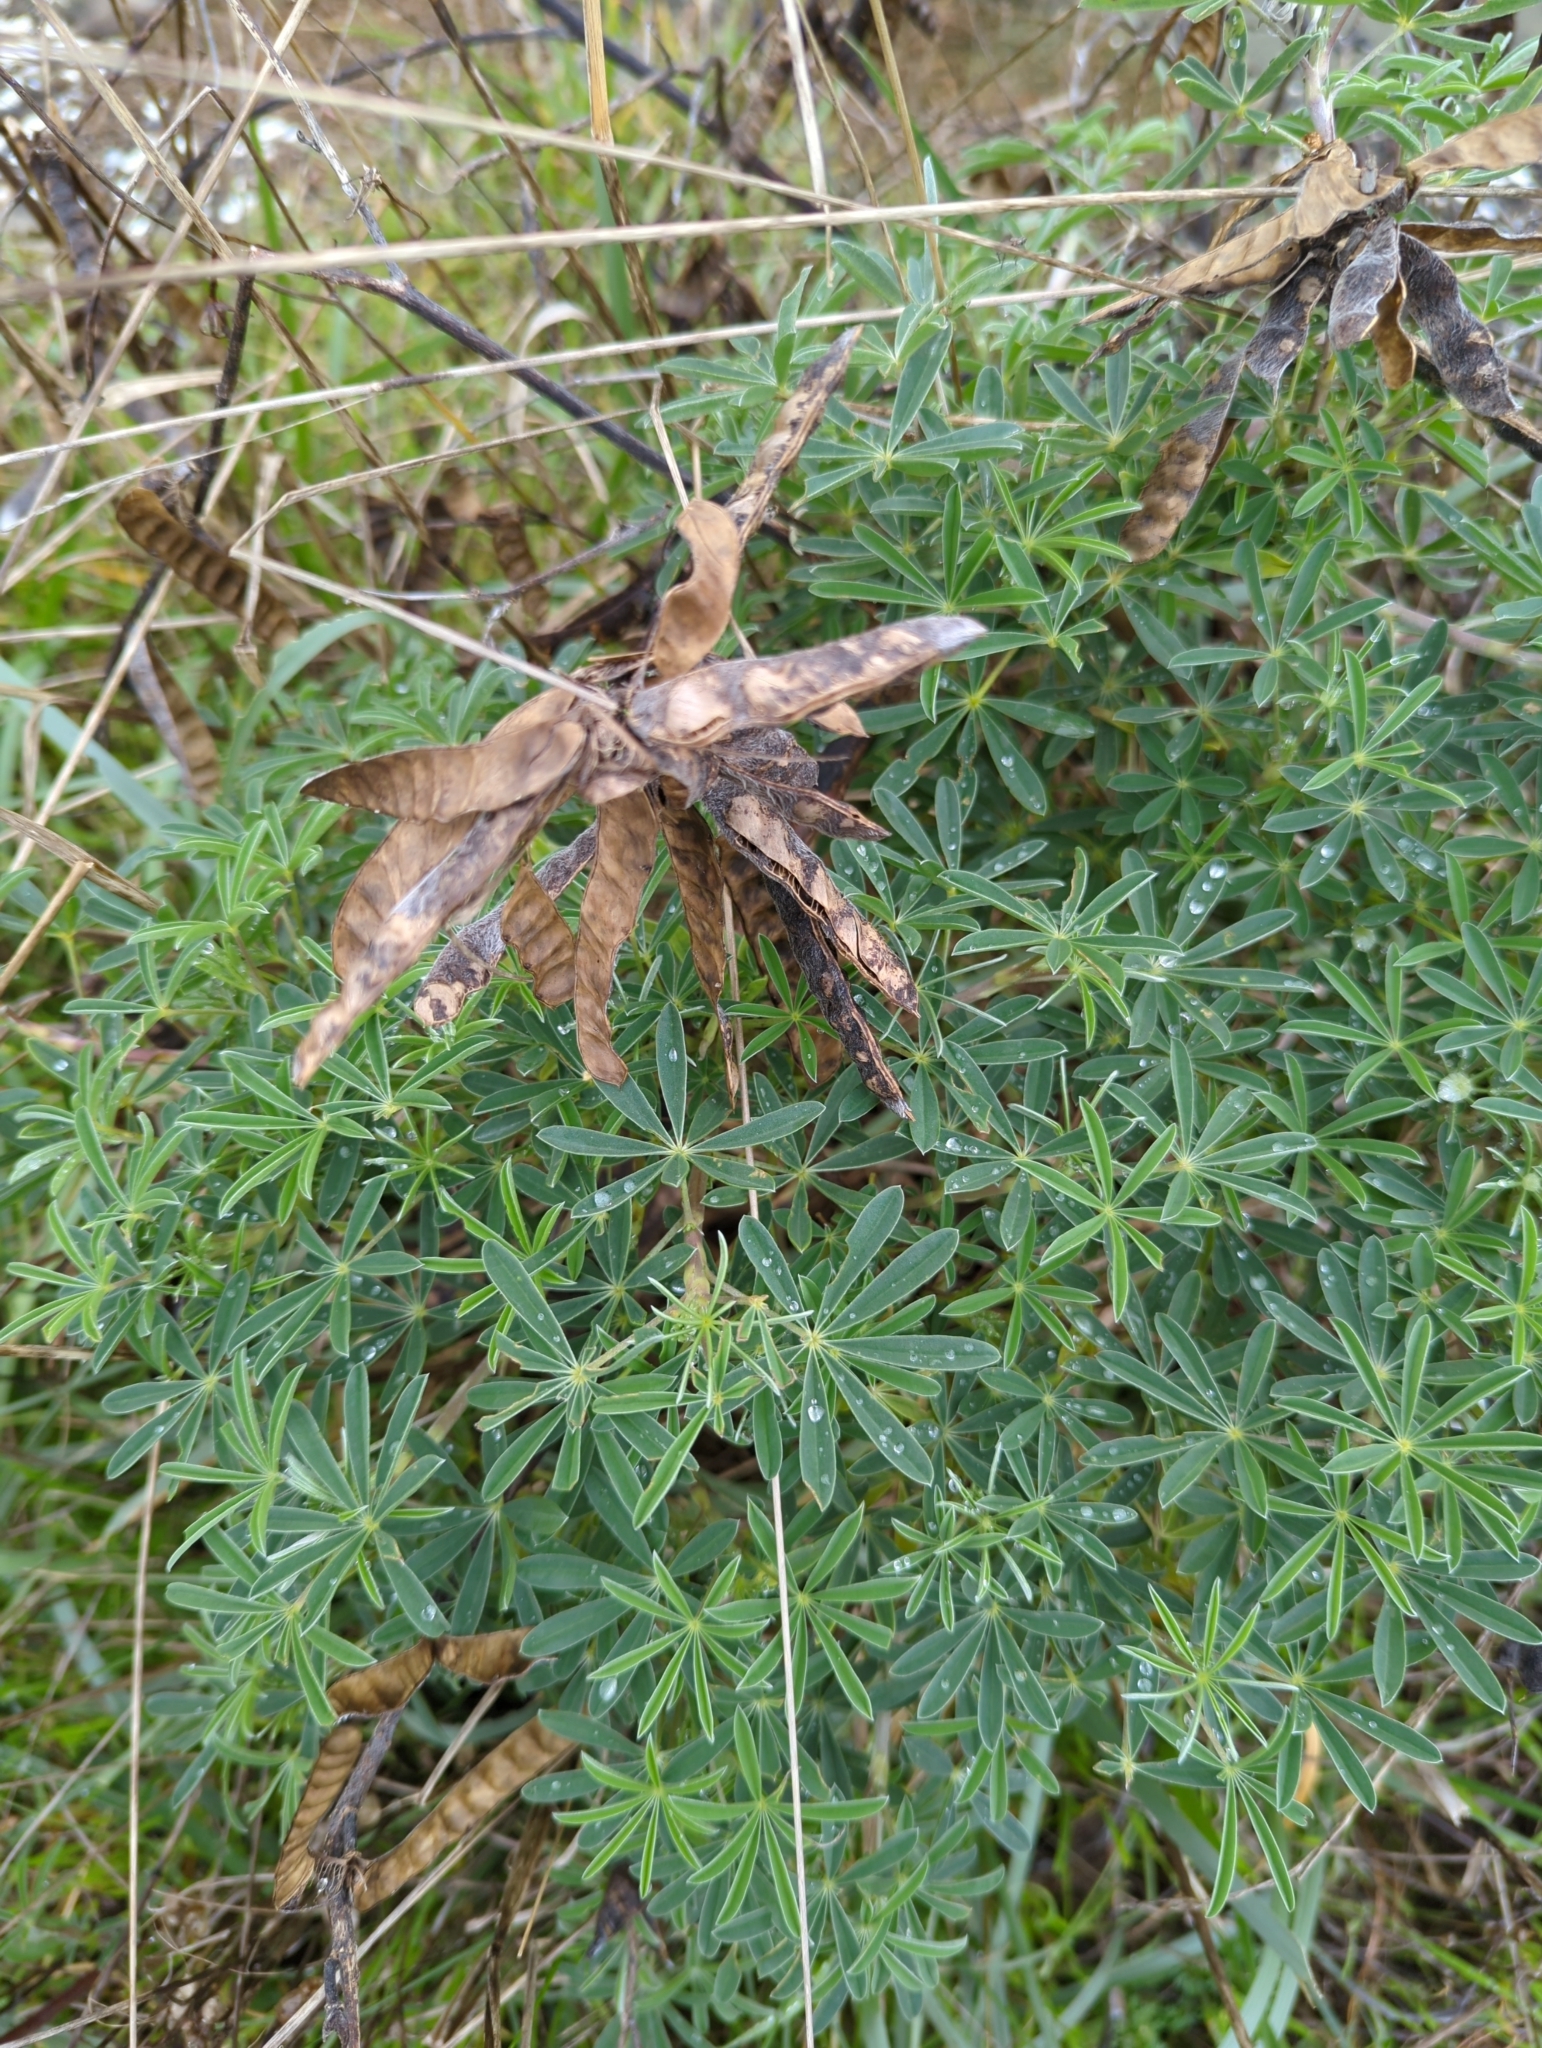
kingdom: Plantae
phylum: Tracheophyta
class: Magnoliopsida
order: Fabales
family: Fabaceae
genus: Lupinus
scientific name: Lupinus littoralis
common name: Seashore lupine
